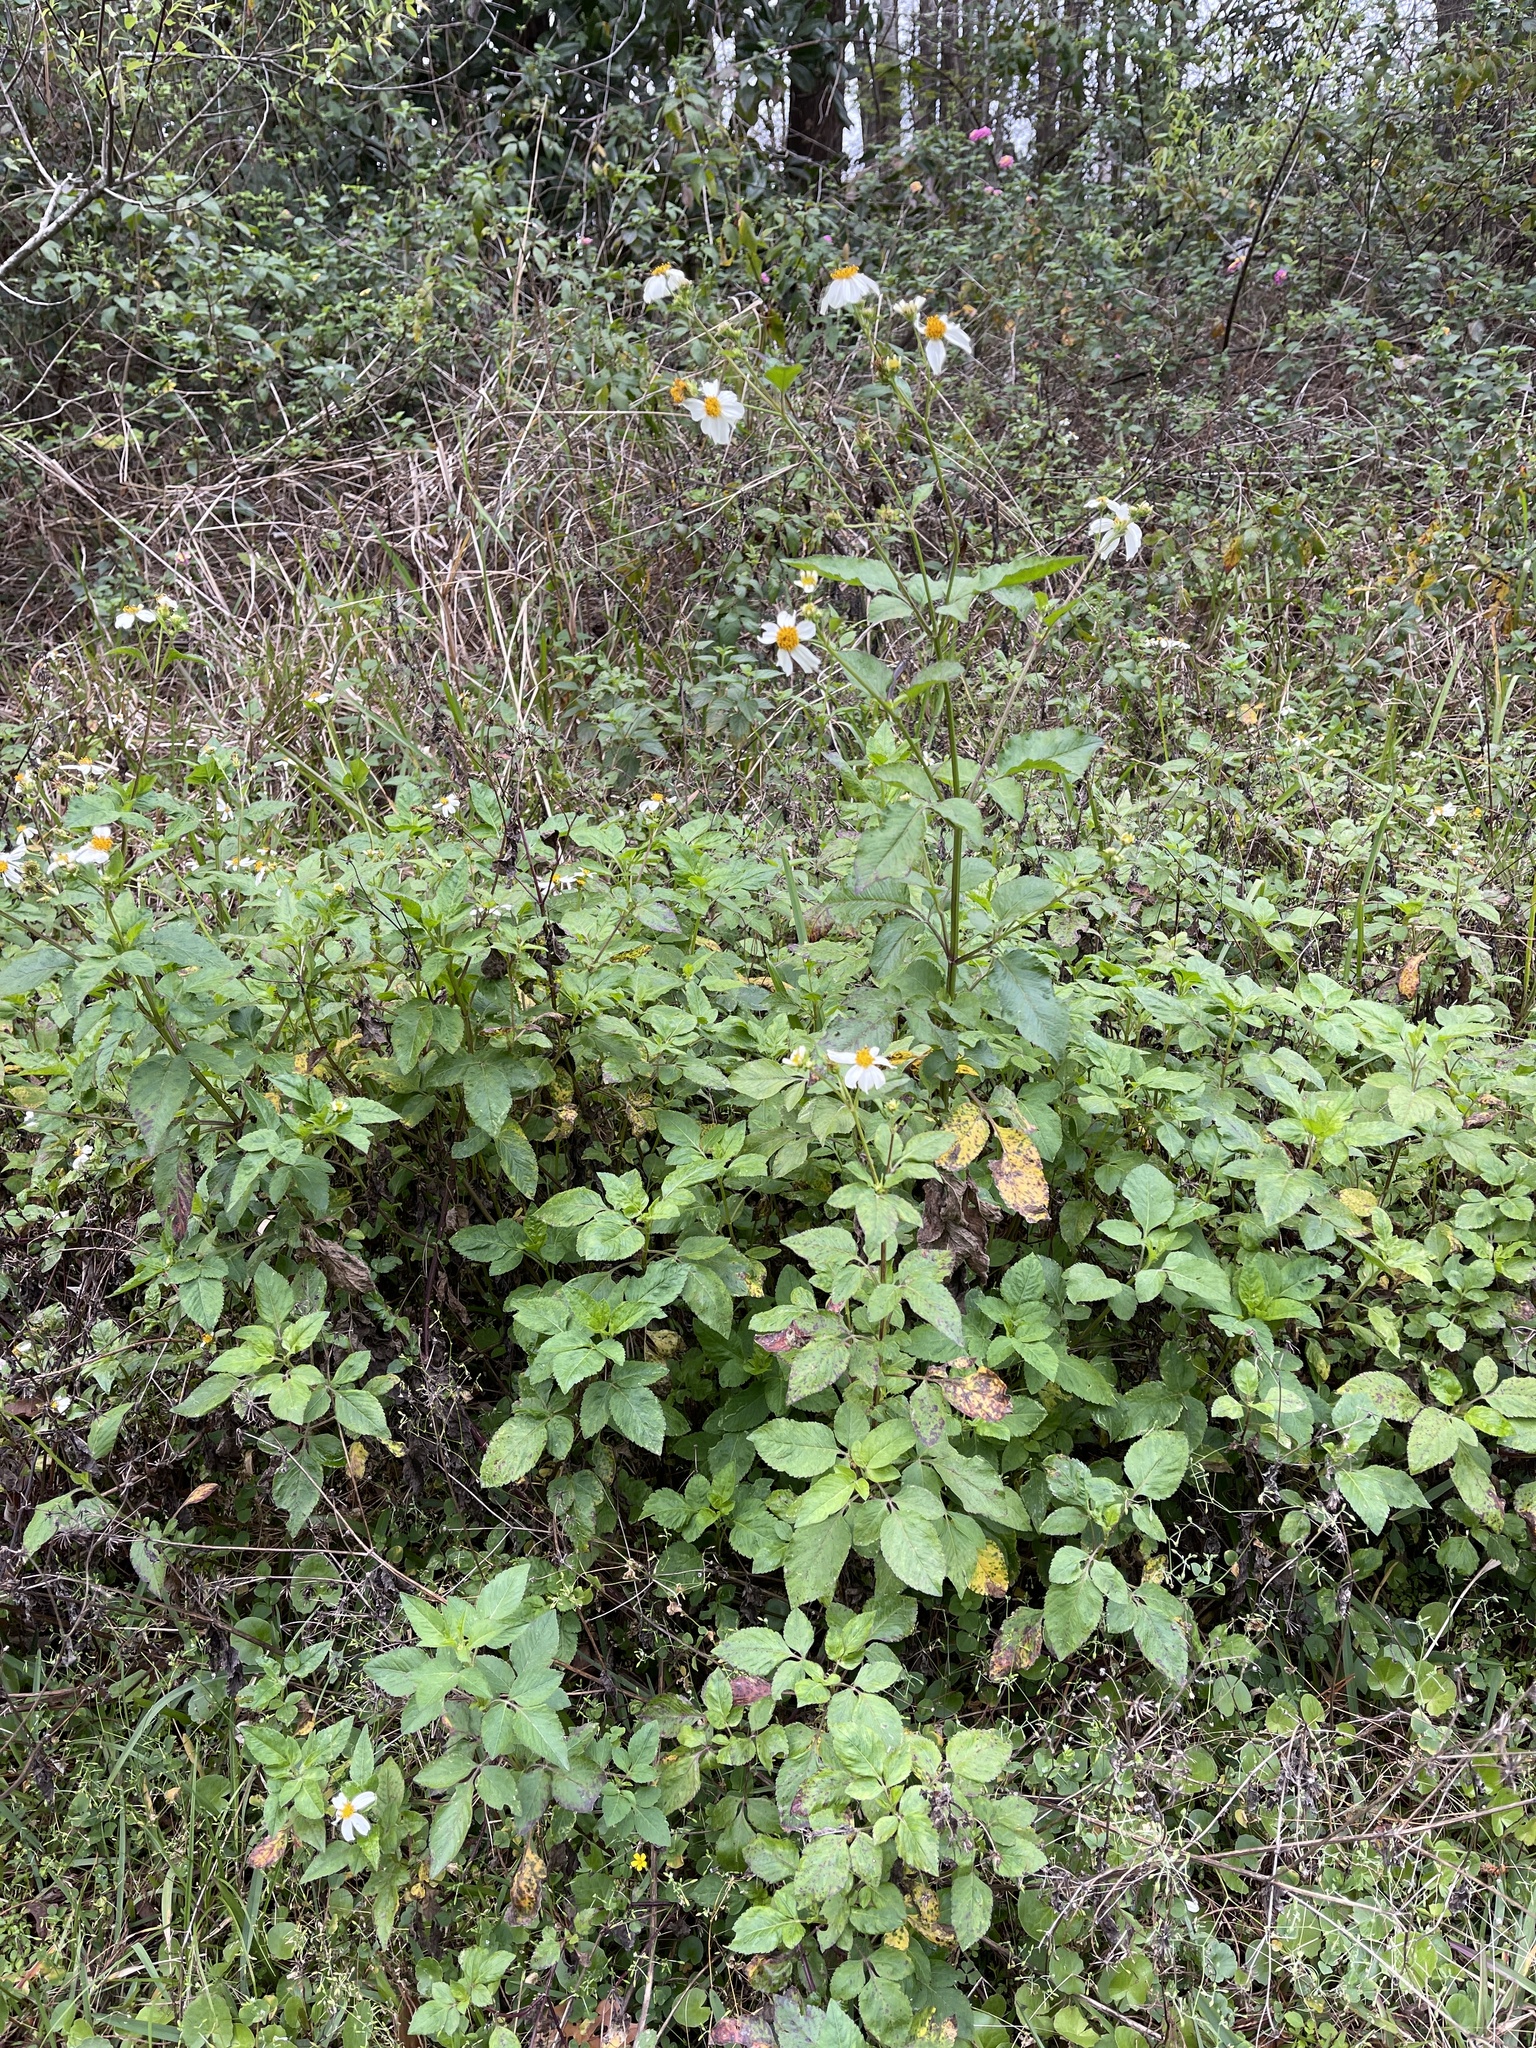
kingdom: Plantae
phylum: Tracheophyta
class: Magnoliopsida
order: Asterales
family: Asteraceae
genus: Bidens
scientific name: Bidens alba
